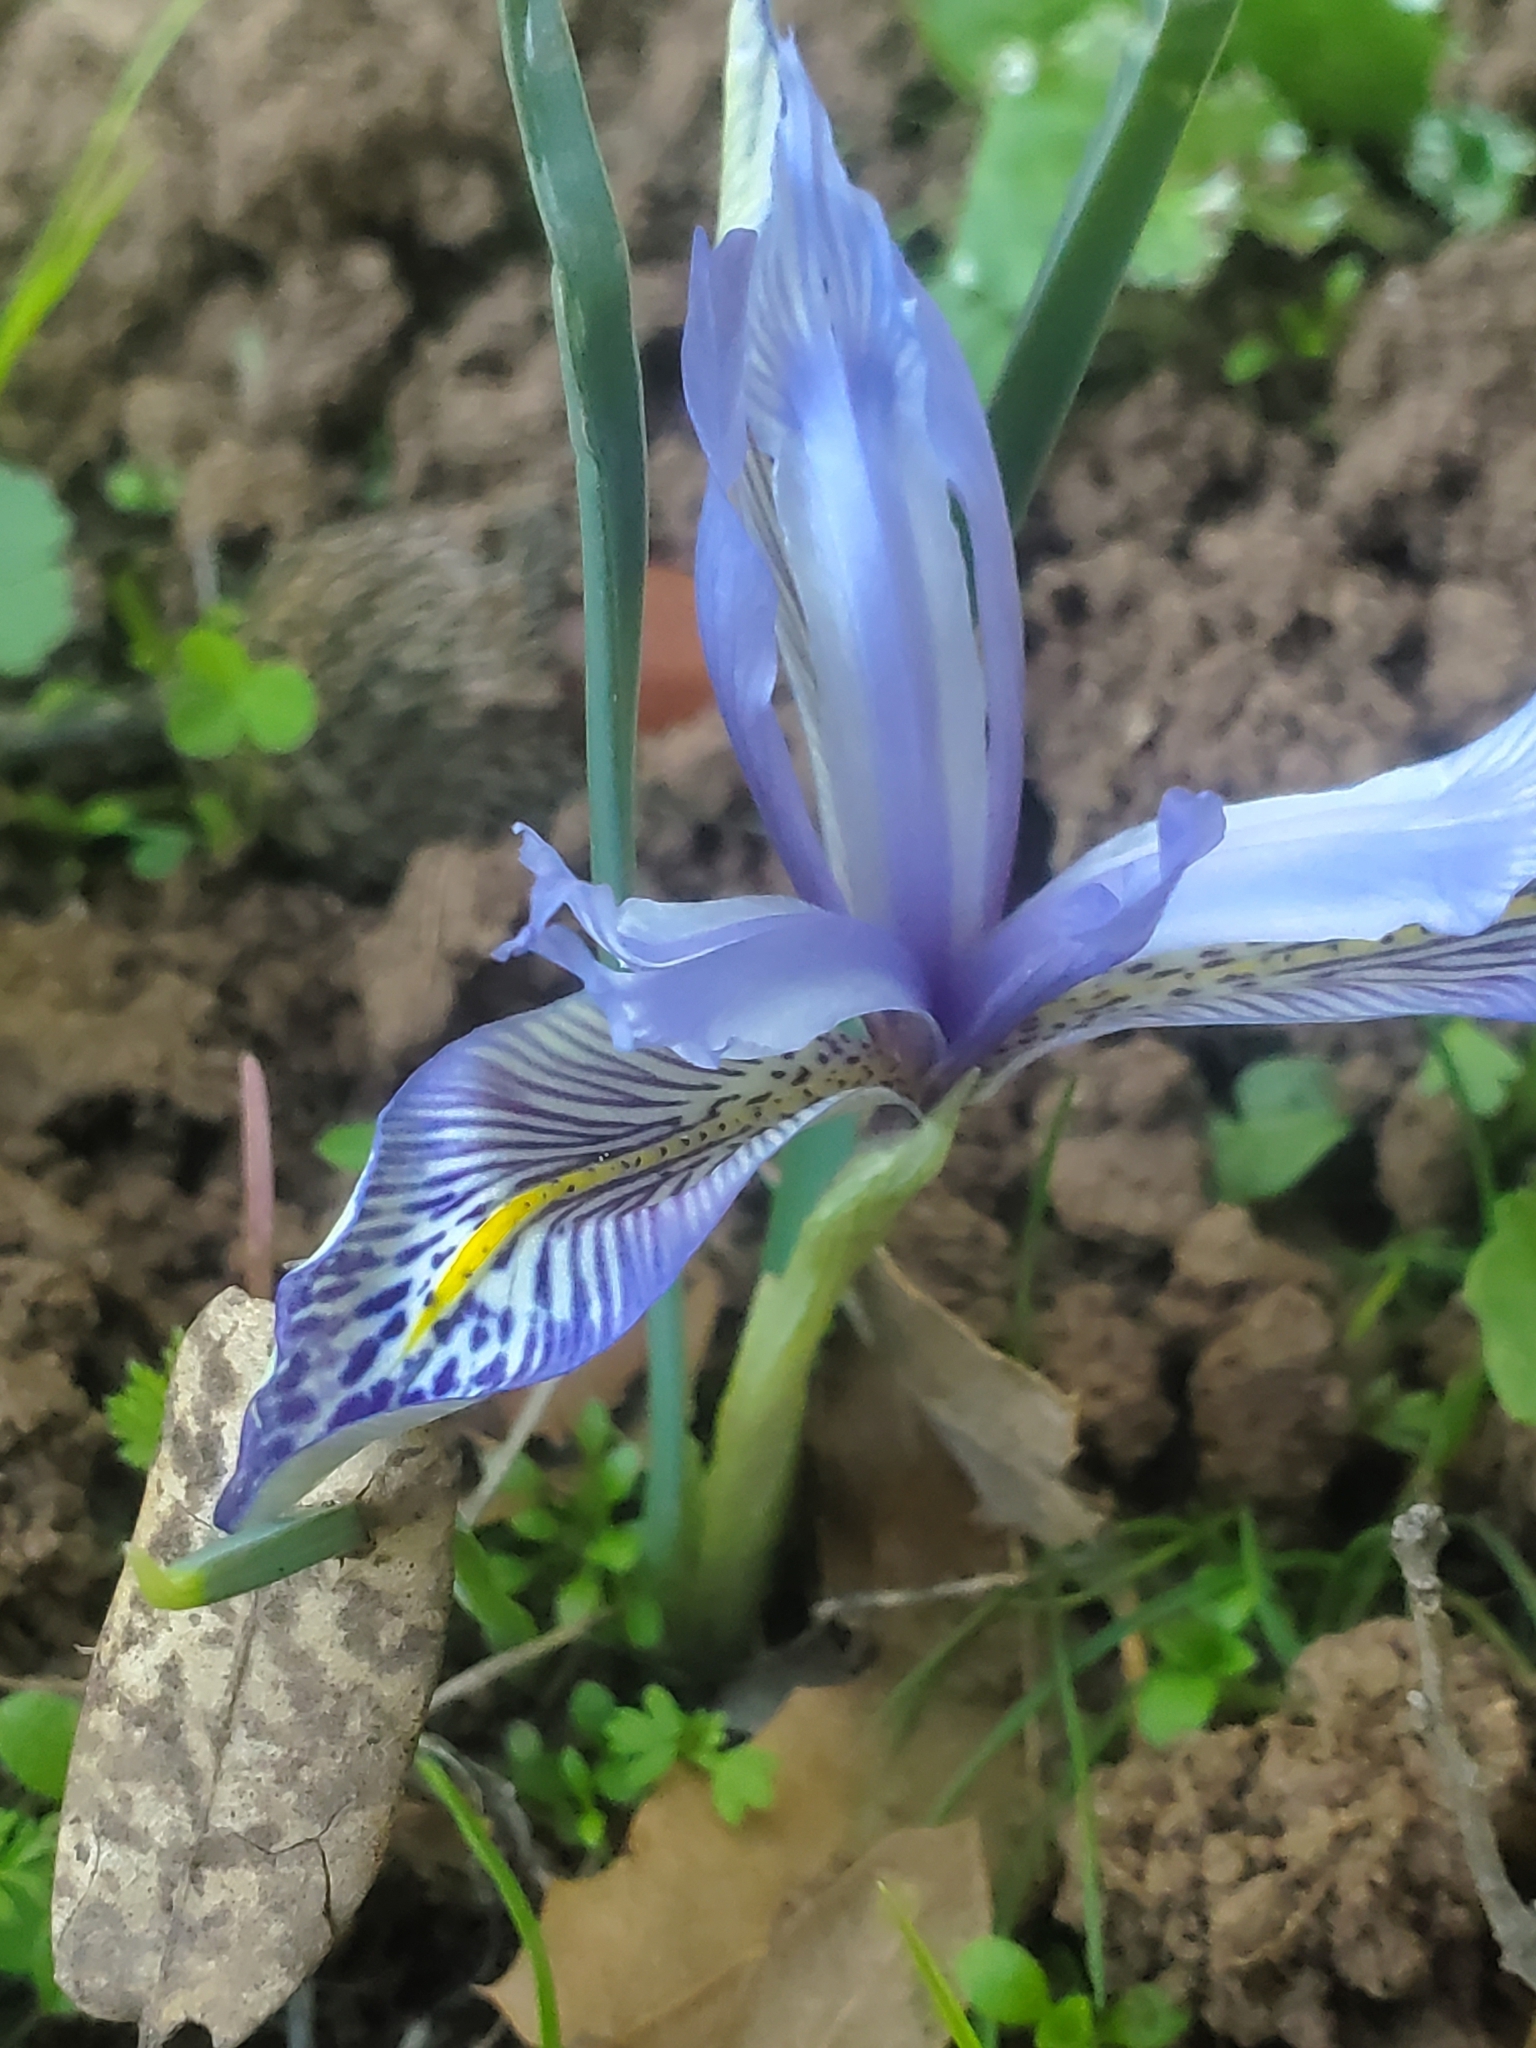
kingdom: Plantae
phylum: Tracheophyta
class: Liliopsida
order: Asparagales
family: Iridaceae
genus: Iris
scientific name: Iris histrio
